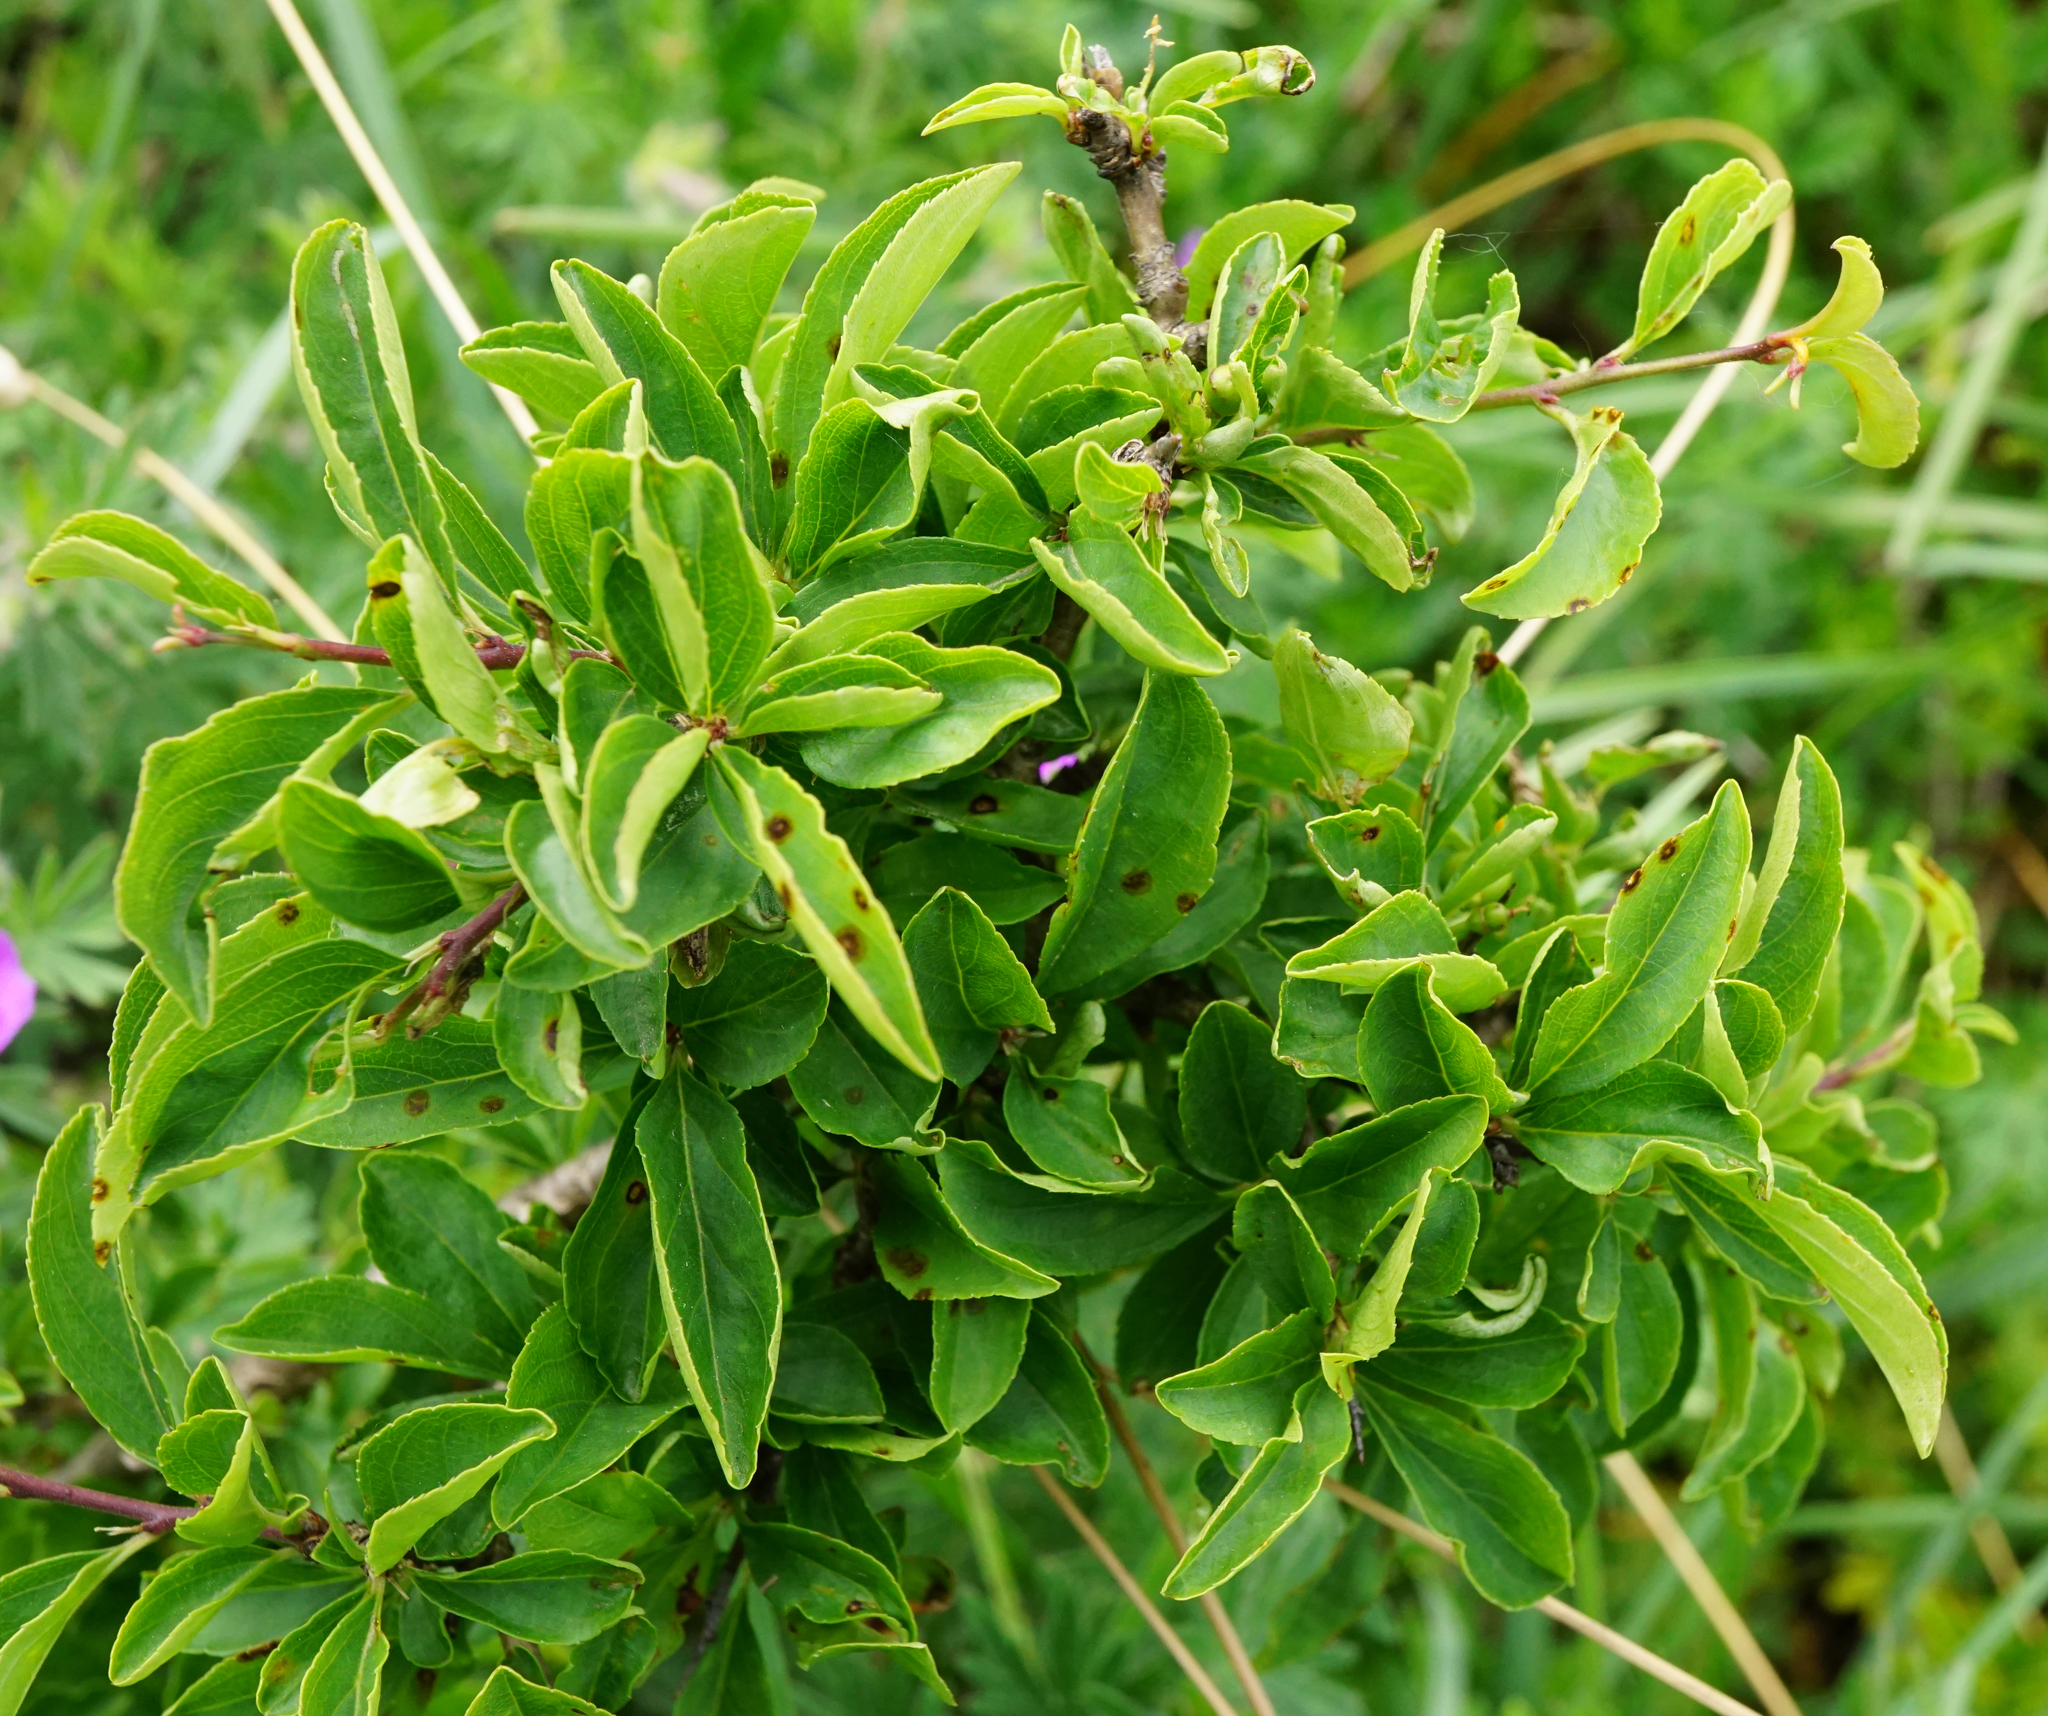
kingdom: Plantae
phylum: Tracheophyta
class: Magnoliopsida
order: Rosales
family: Rhamnaceae
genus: Rhamnus
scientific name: Rhamnus saxatilis
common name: Rock buckthorn
